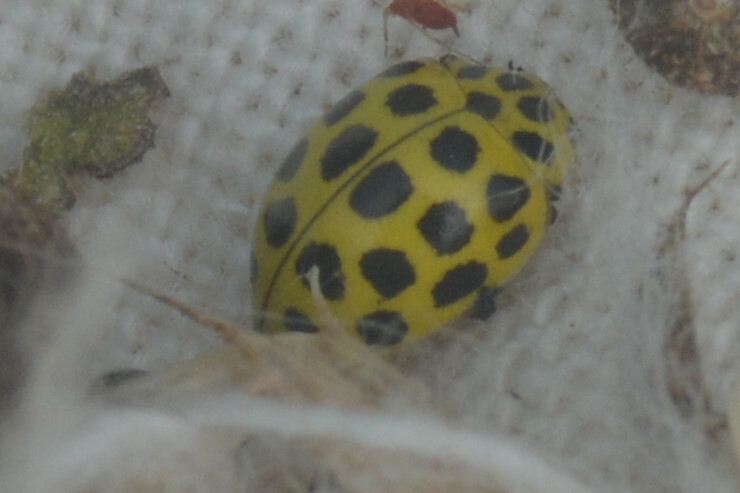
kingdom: Animalia
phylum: Arthropoda
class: Insecta
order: Coleoptera
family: Coccinellidae
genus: Psyllobora
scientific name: Psyllobora vigintiduopunctata
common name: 22-spot ladybird
